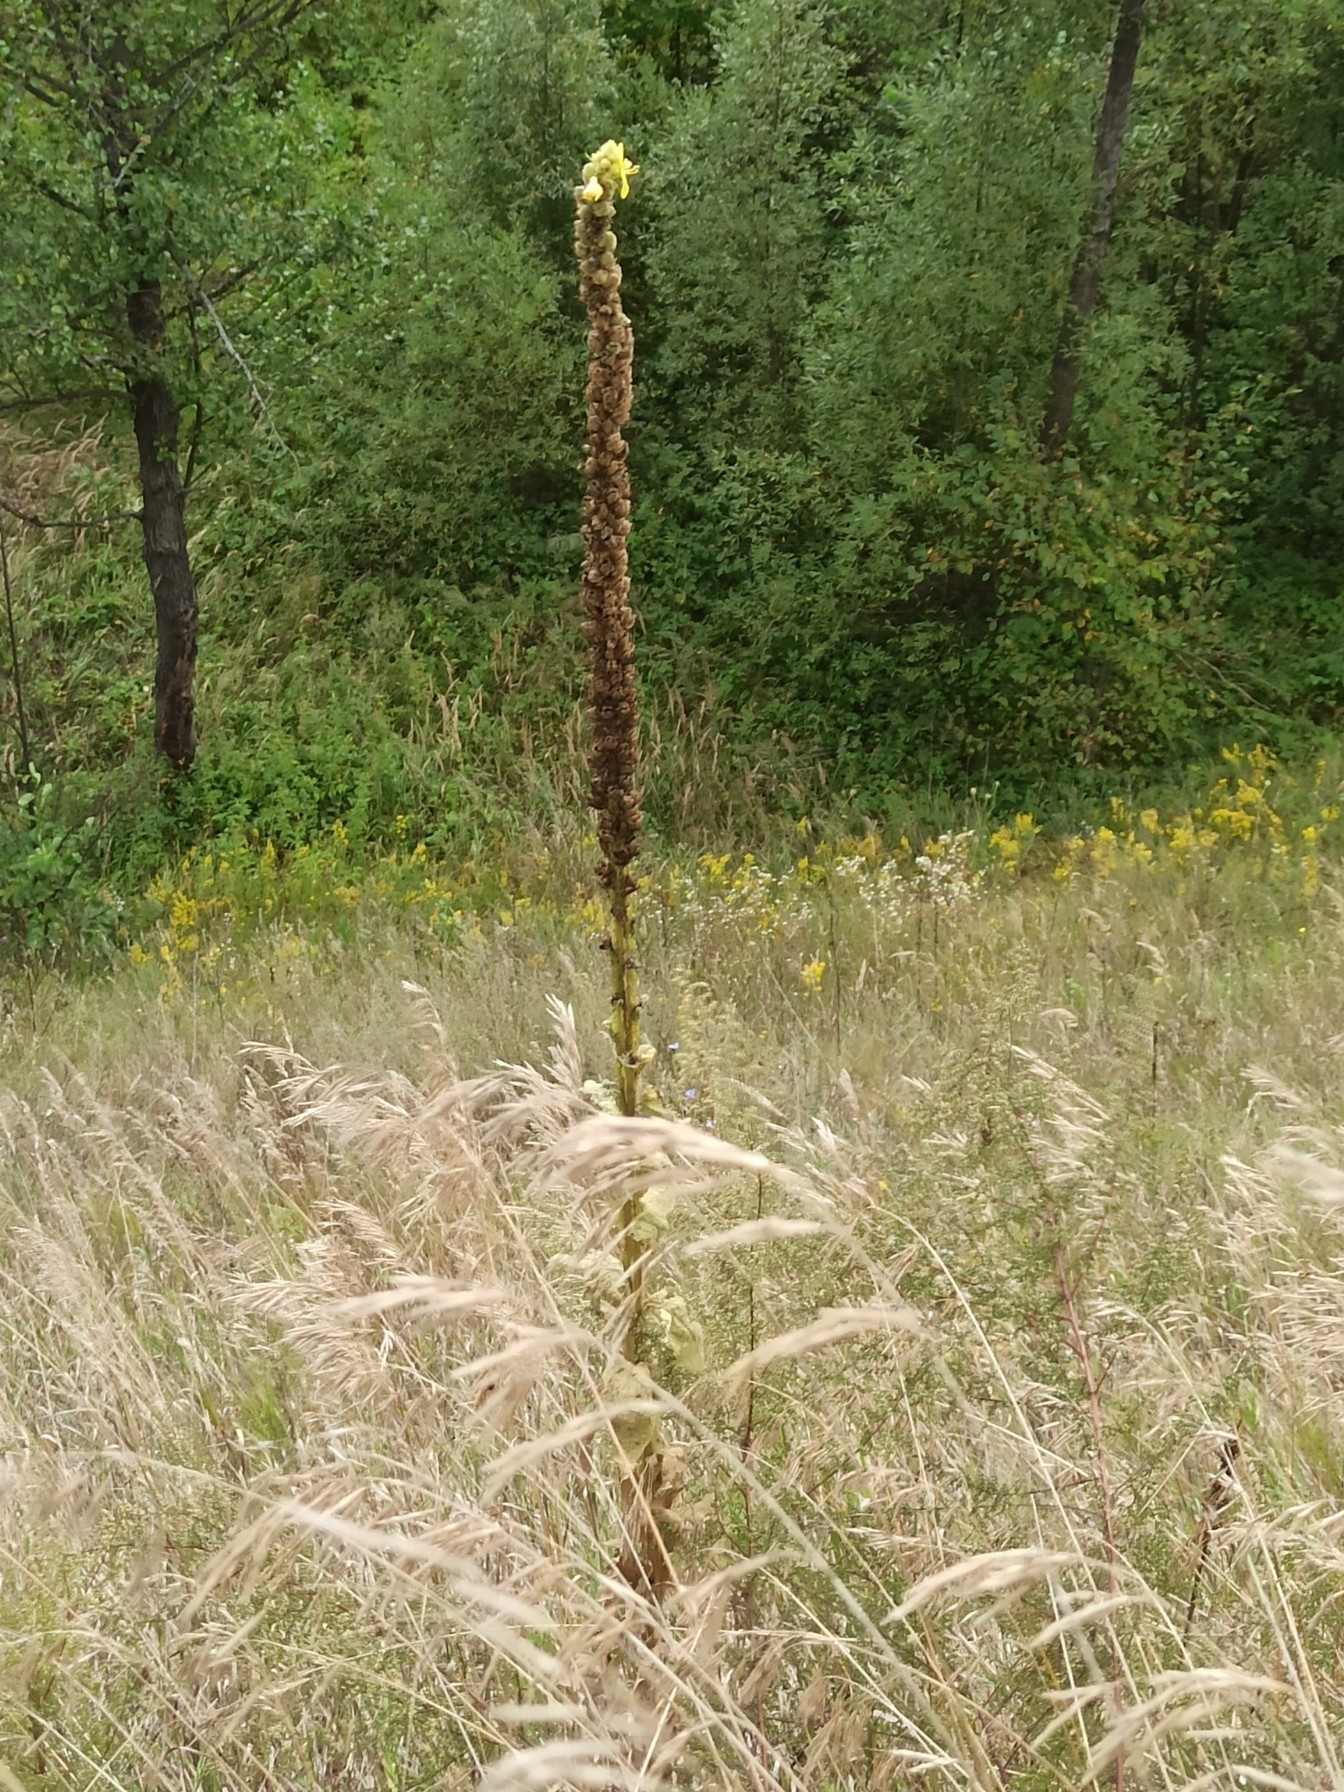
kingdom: Plantae
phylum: Tracheophyta
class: Magnoliopsida
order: Lamiales
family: Scrophulariaceae
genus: Verbascum
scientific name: Verbascum thapsus
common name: Common mullein
